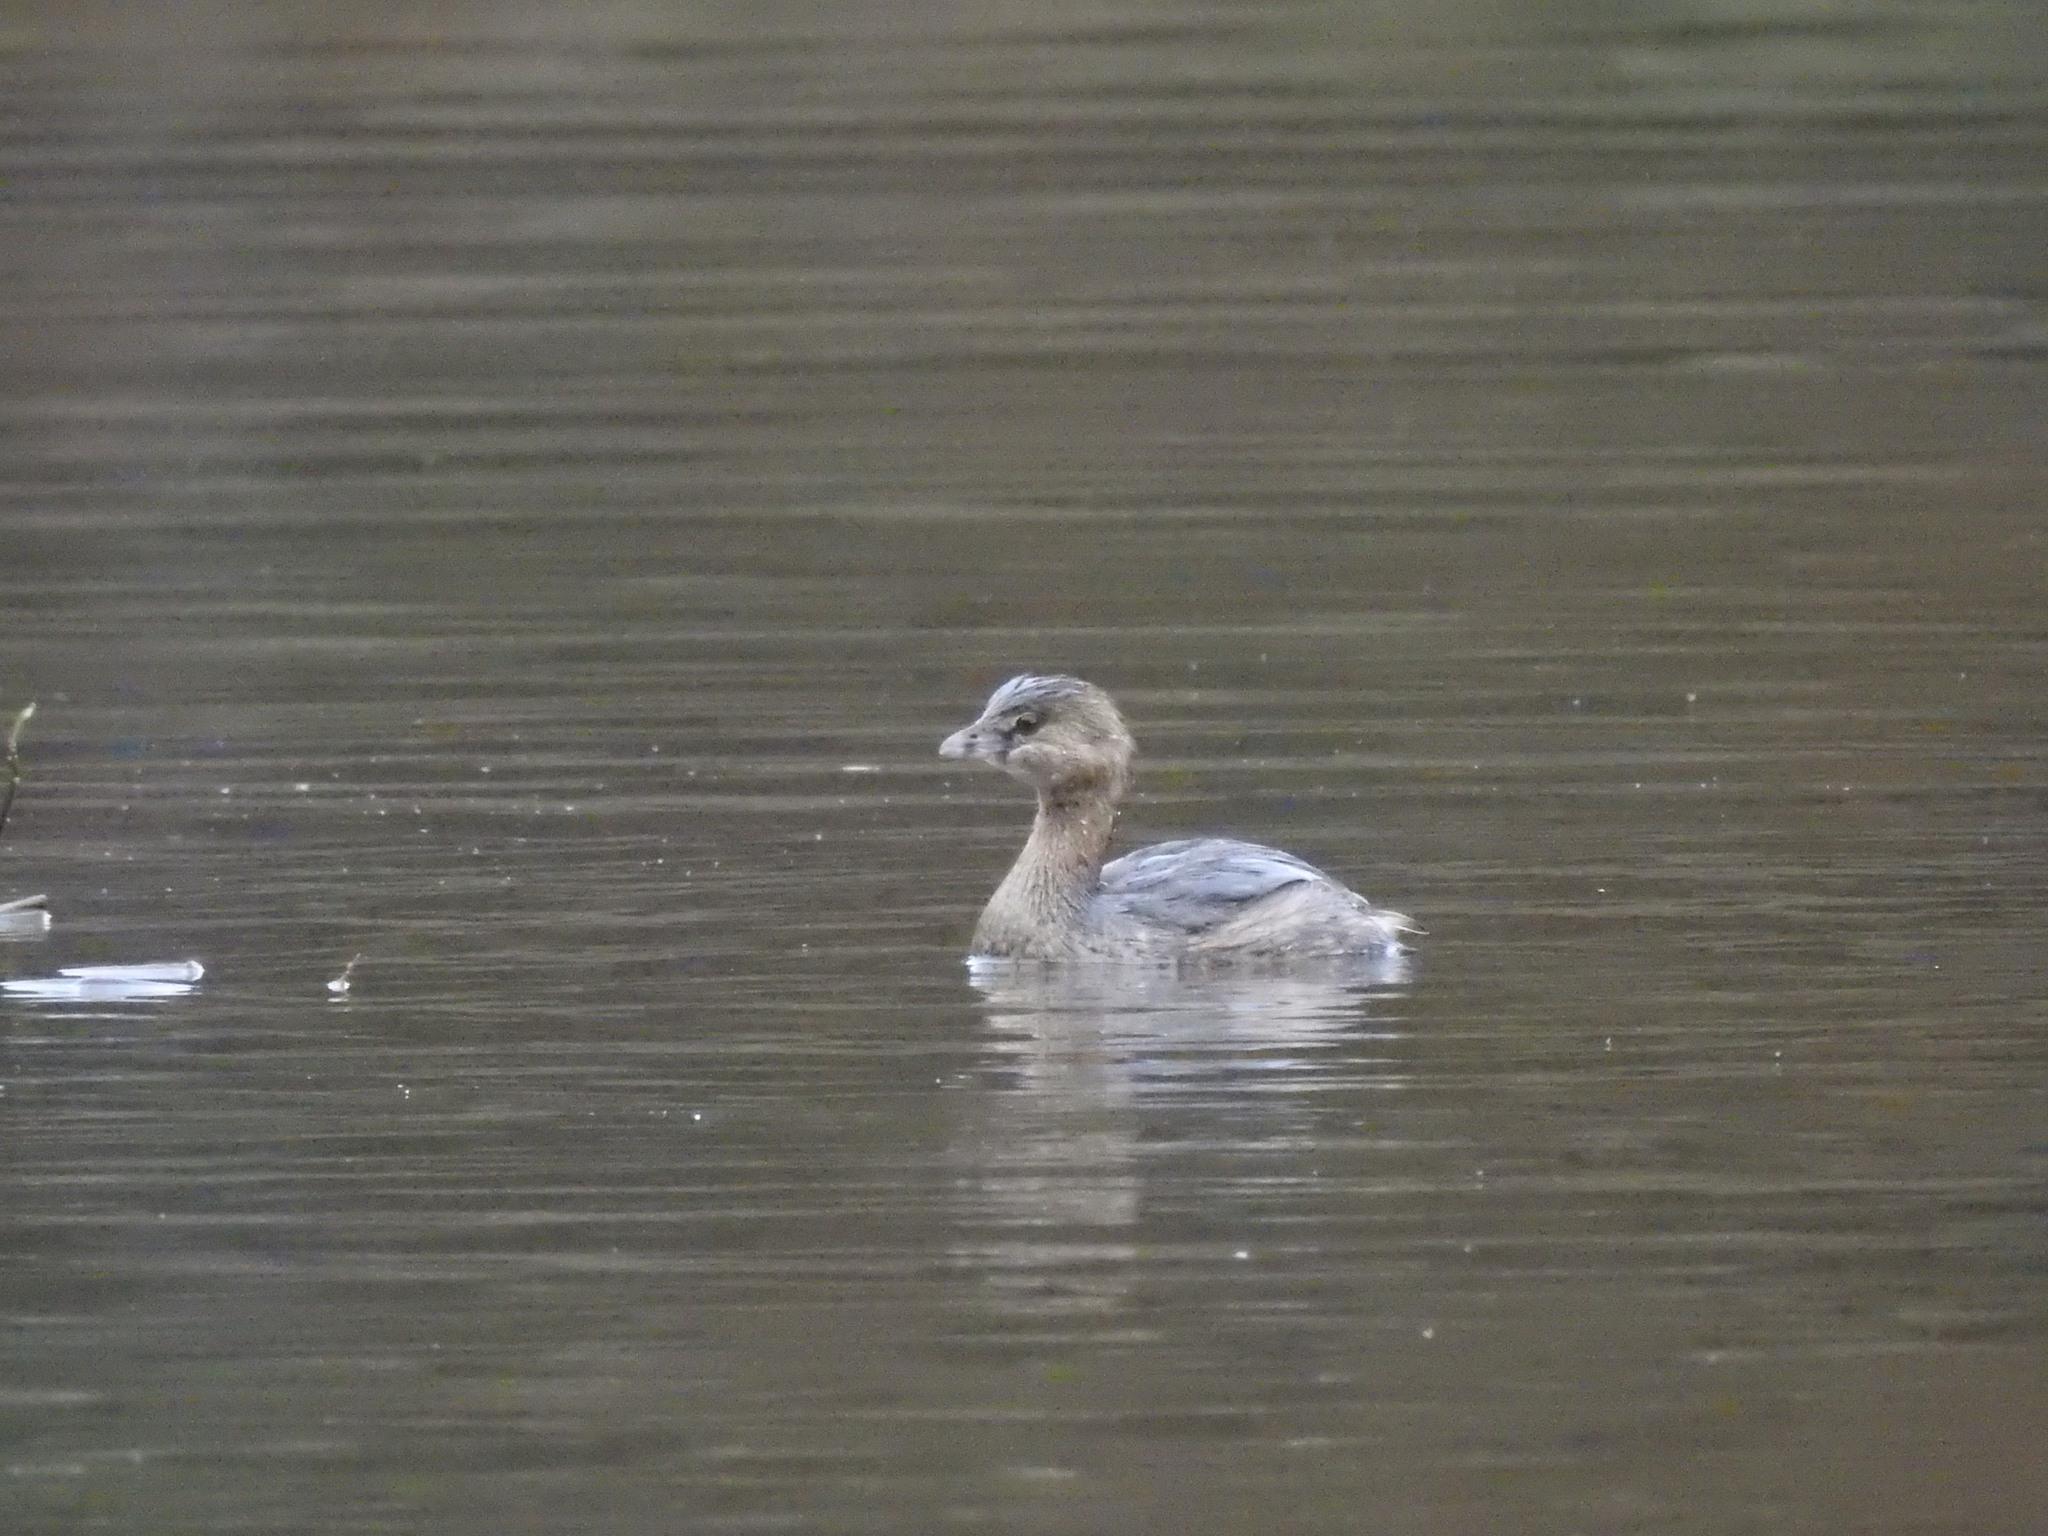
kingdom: Animalia
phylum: Chordata
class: Aves
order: Podicipediformes
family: Podicipedidae
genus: Podilymbus
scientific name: Podilymbus podiceps
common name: Pied-billed grebe
